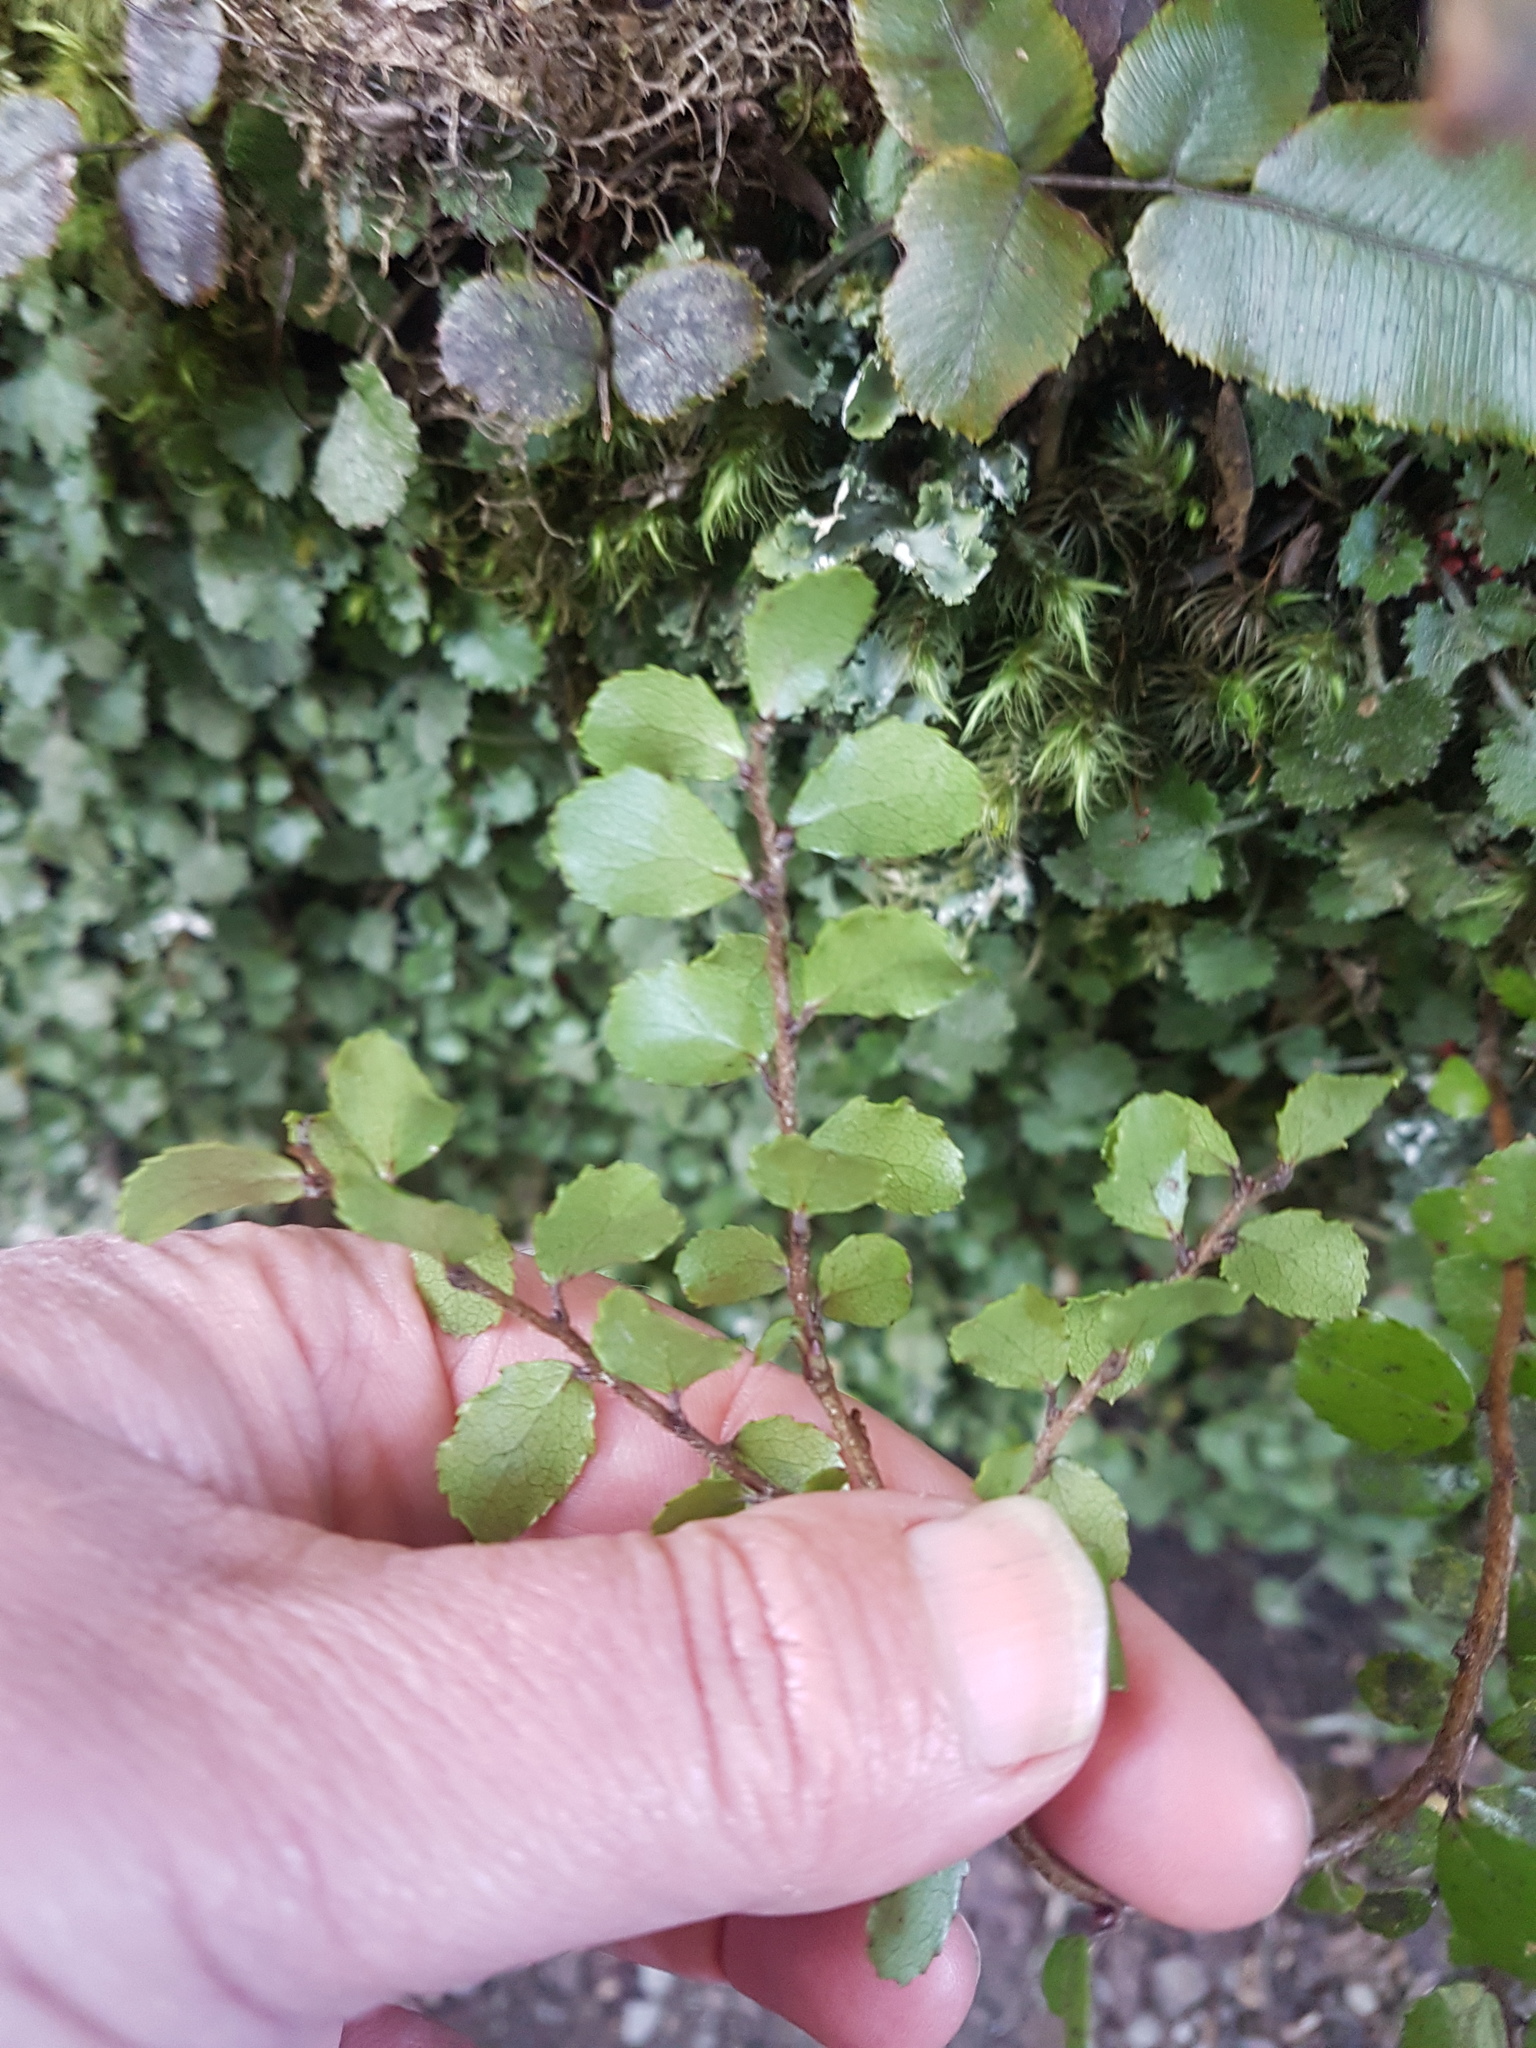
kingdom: Plantae
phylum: Tracheophyta
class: Magnoliopsida
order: Ericales
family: Ericaceae
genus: Gaultheria
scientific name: Gaultheria antipoda
